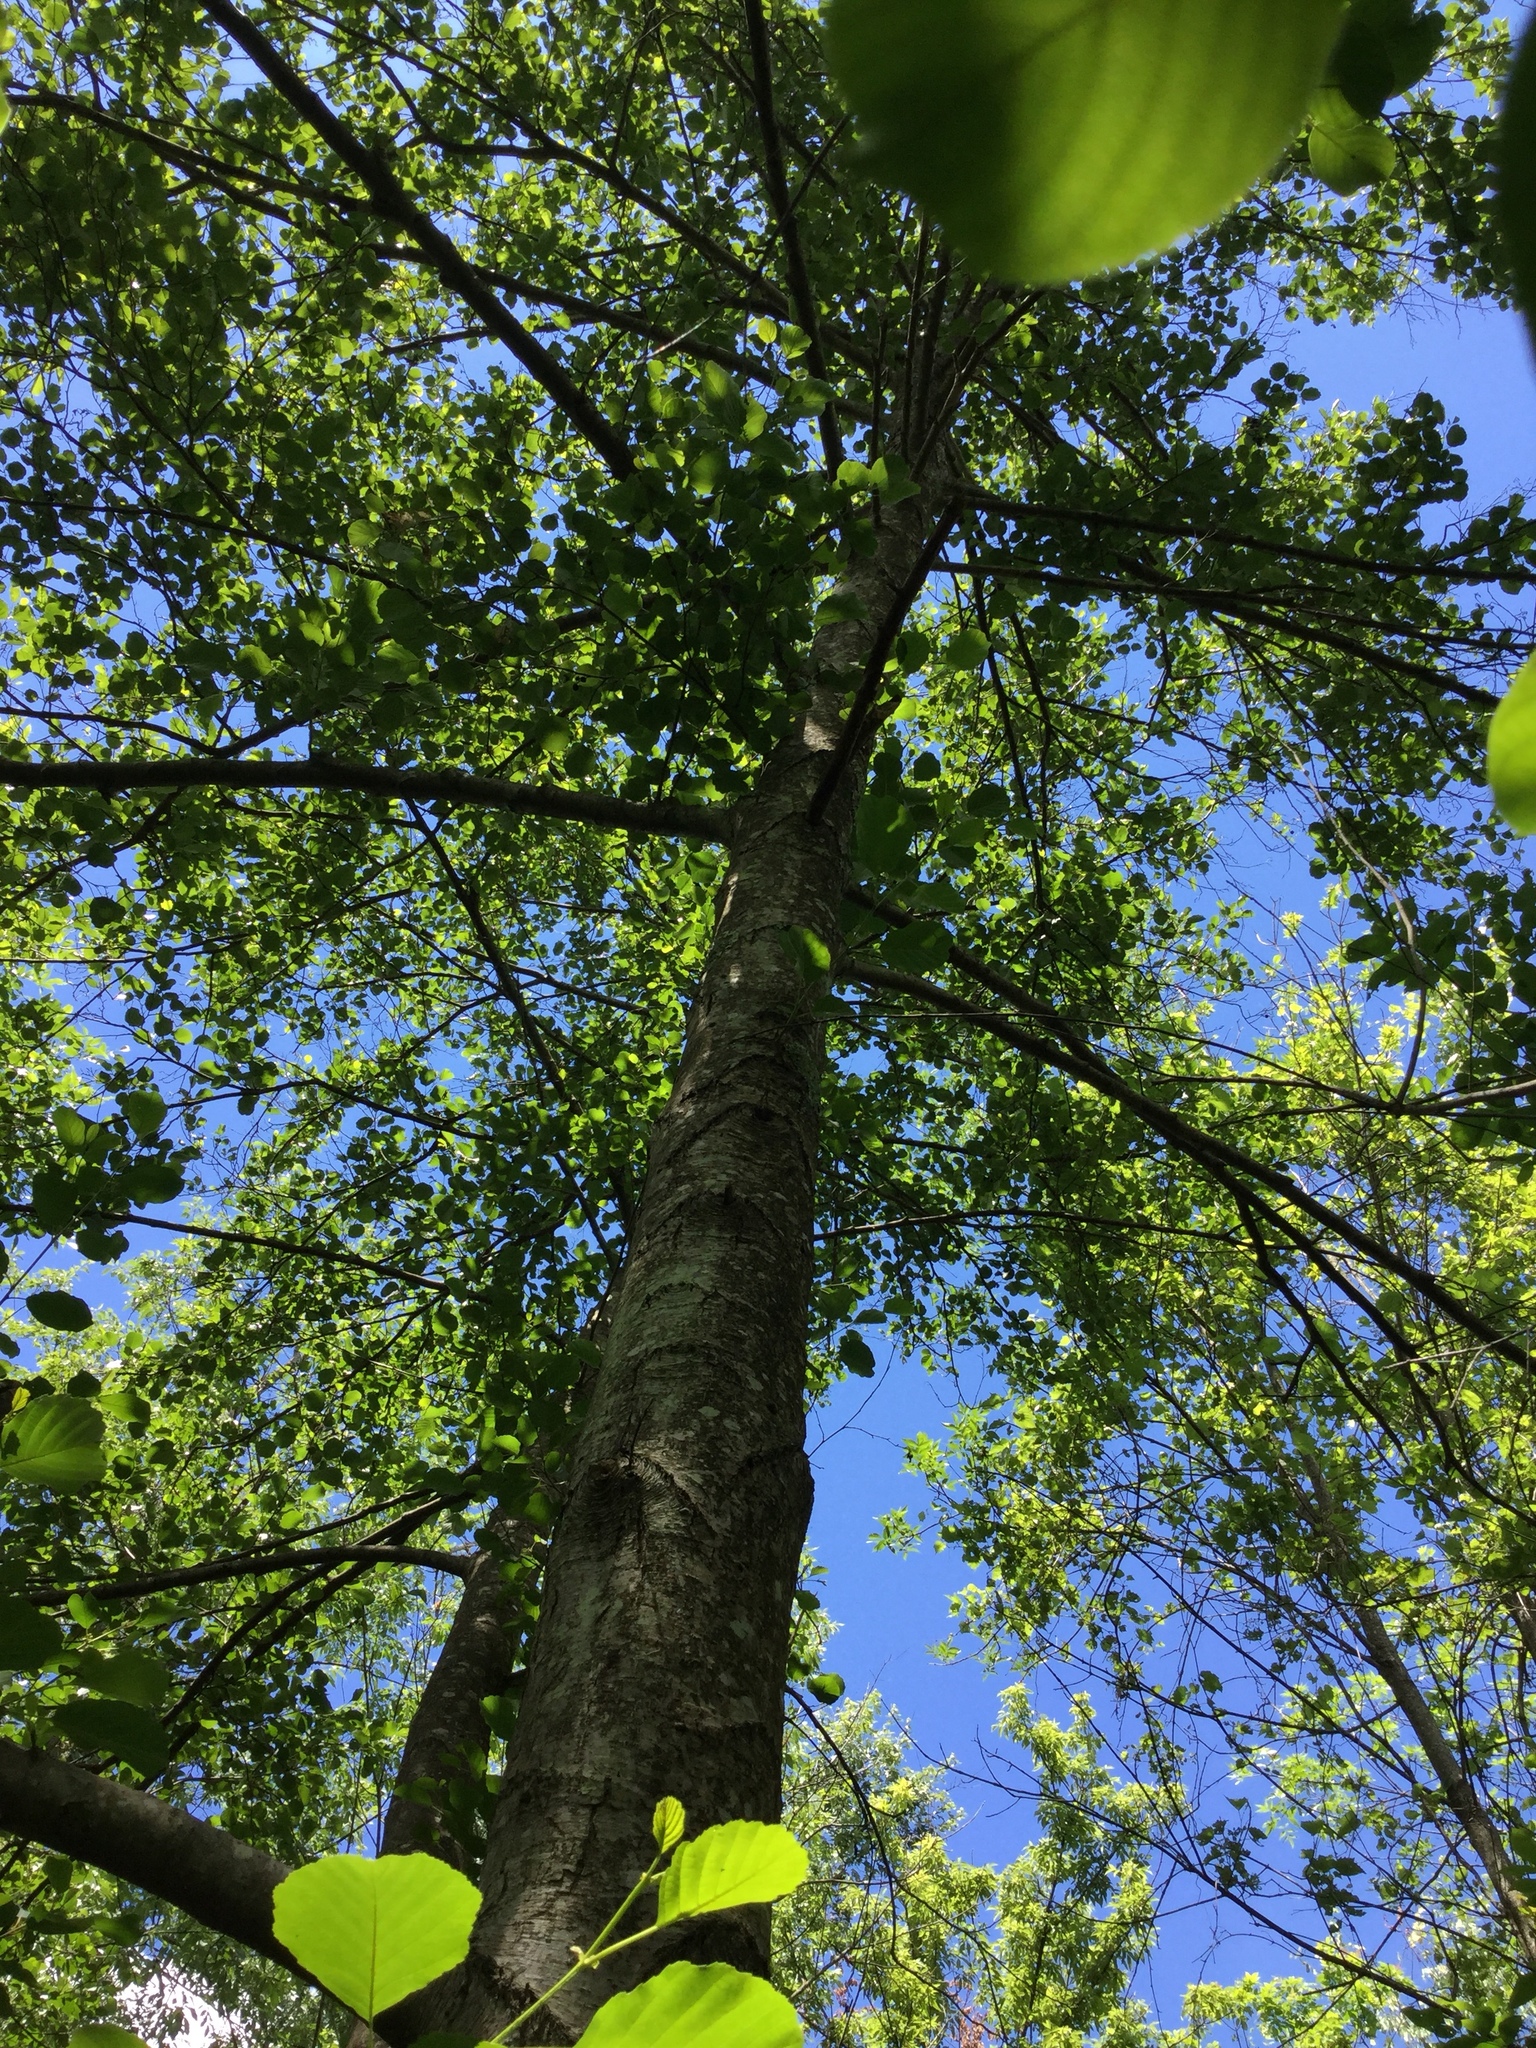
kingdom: Plantae
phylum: Tracheophyta
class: Magnoliopsida
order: Fagales
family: Betulaceae
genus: Alnus
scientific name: Alnus glutinosa
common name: Black alder
